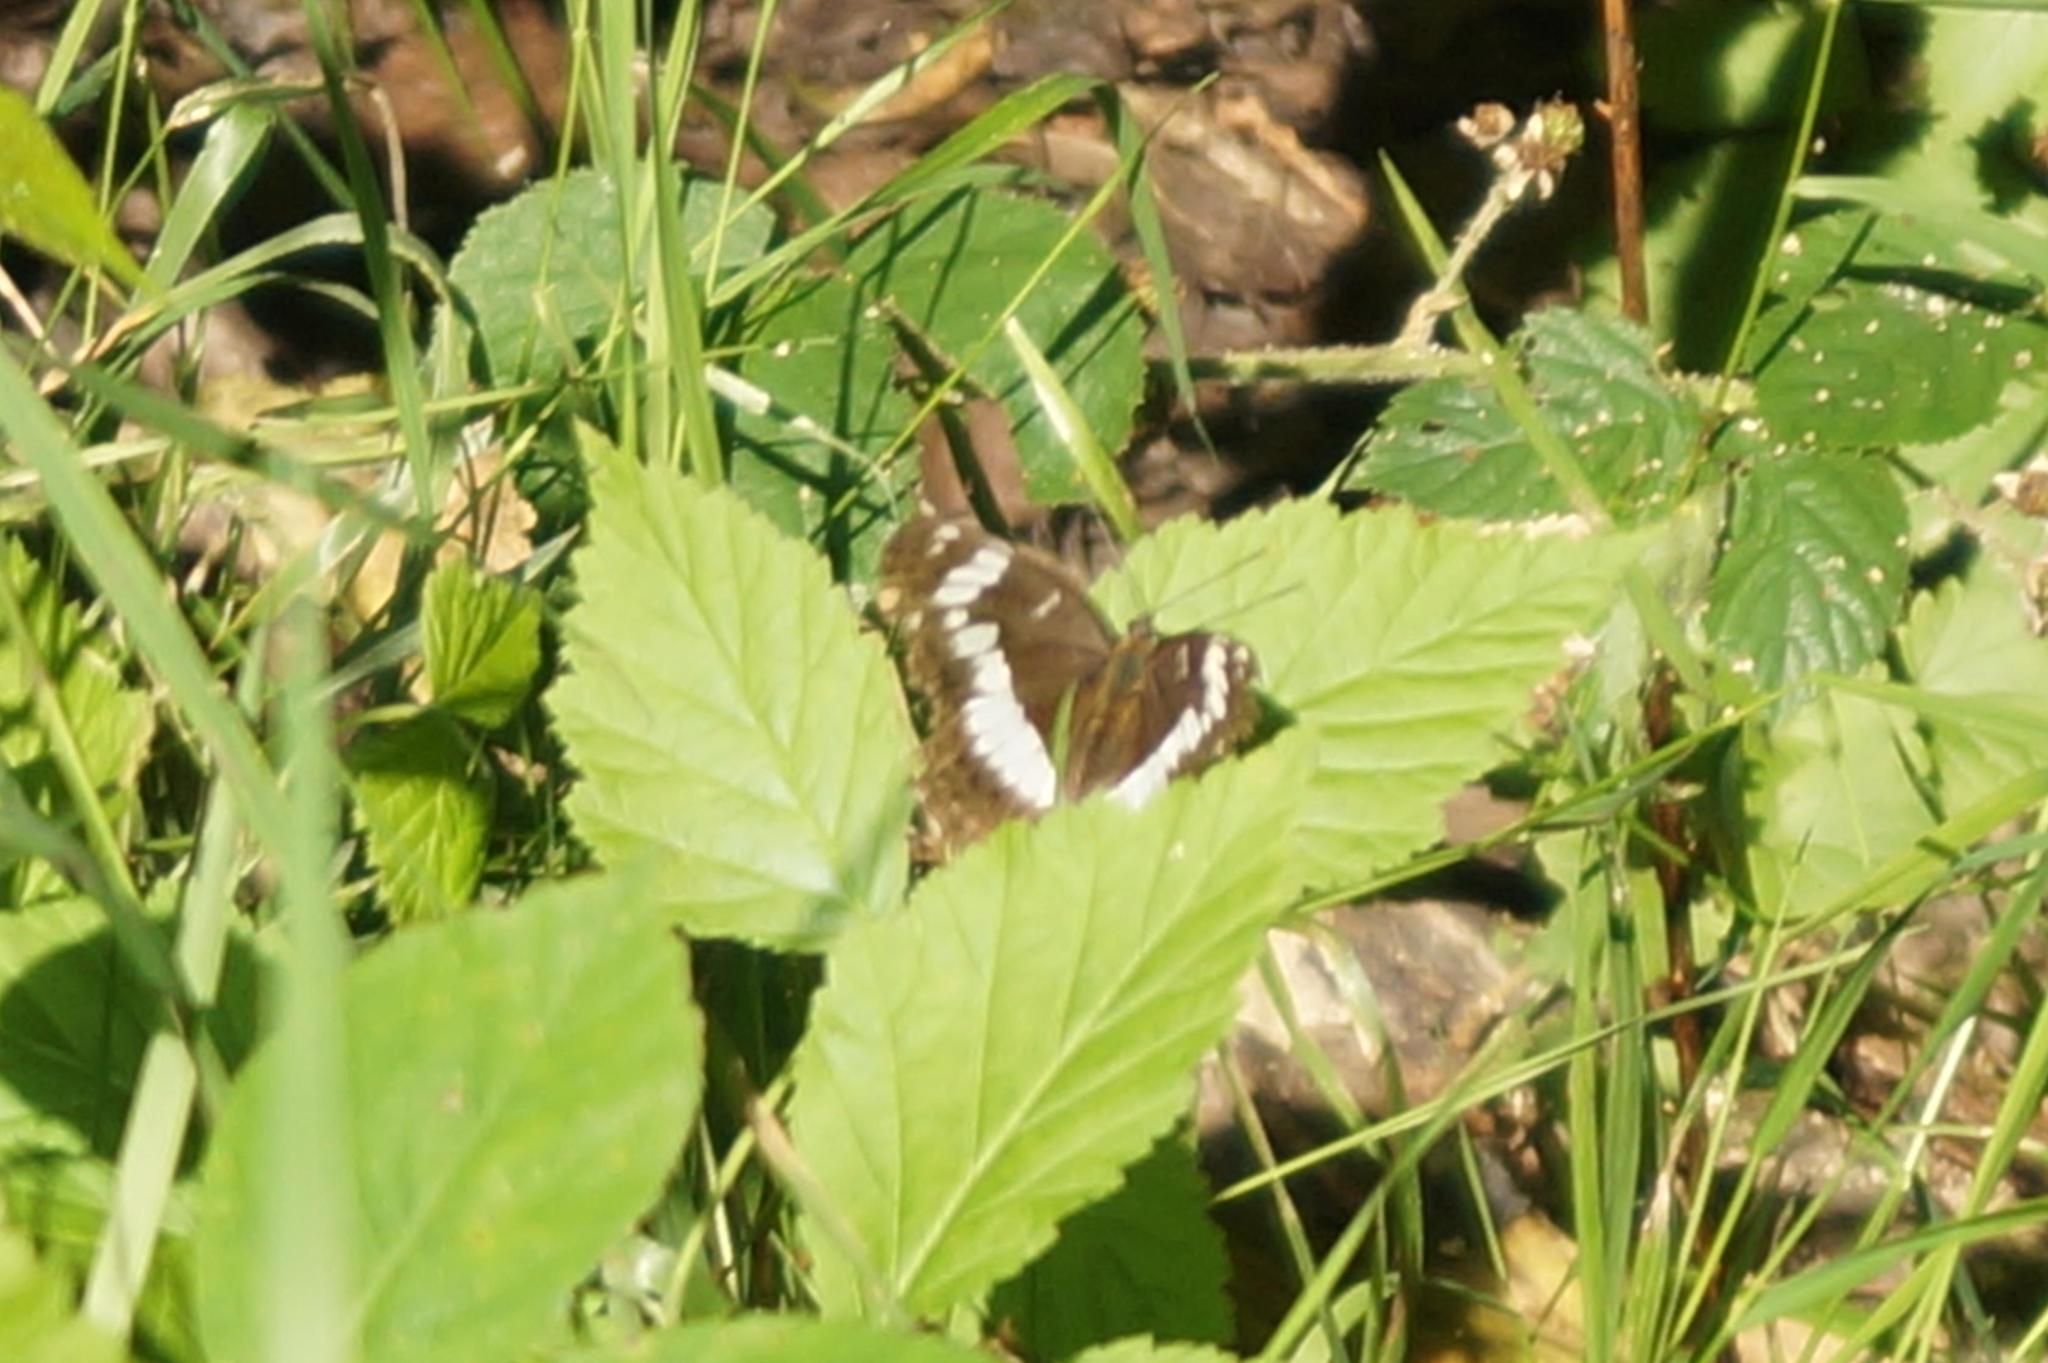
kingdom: Animalia
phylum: Arthropoda
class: Insecta
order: Lepidoptera
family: Nymphalidae
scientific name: Nymphalidae
